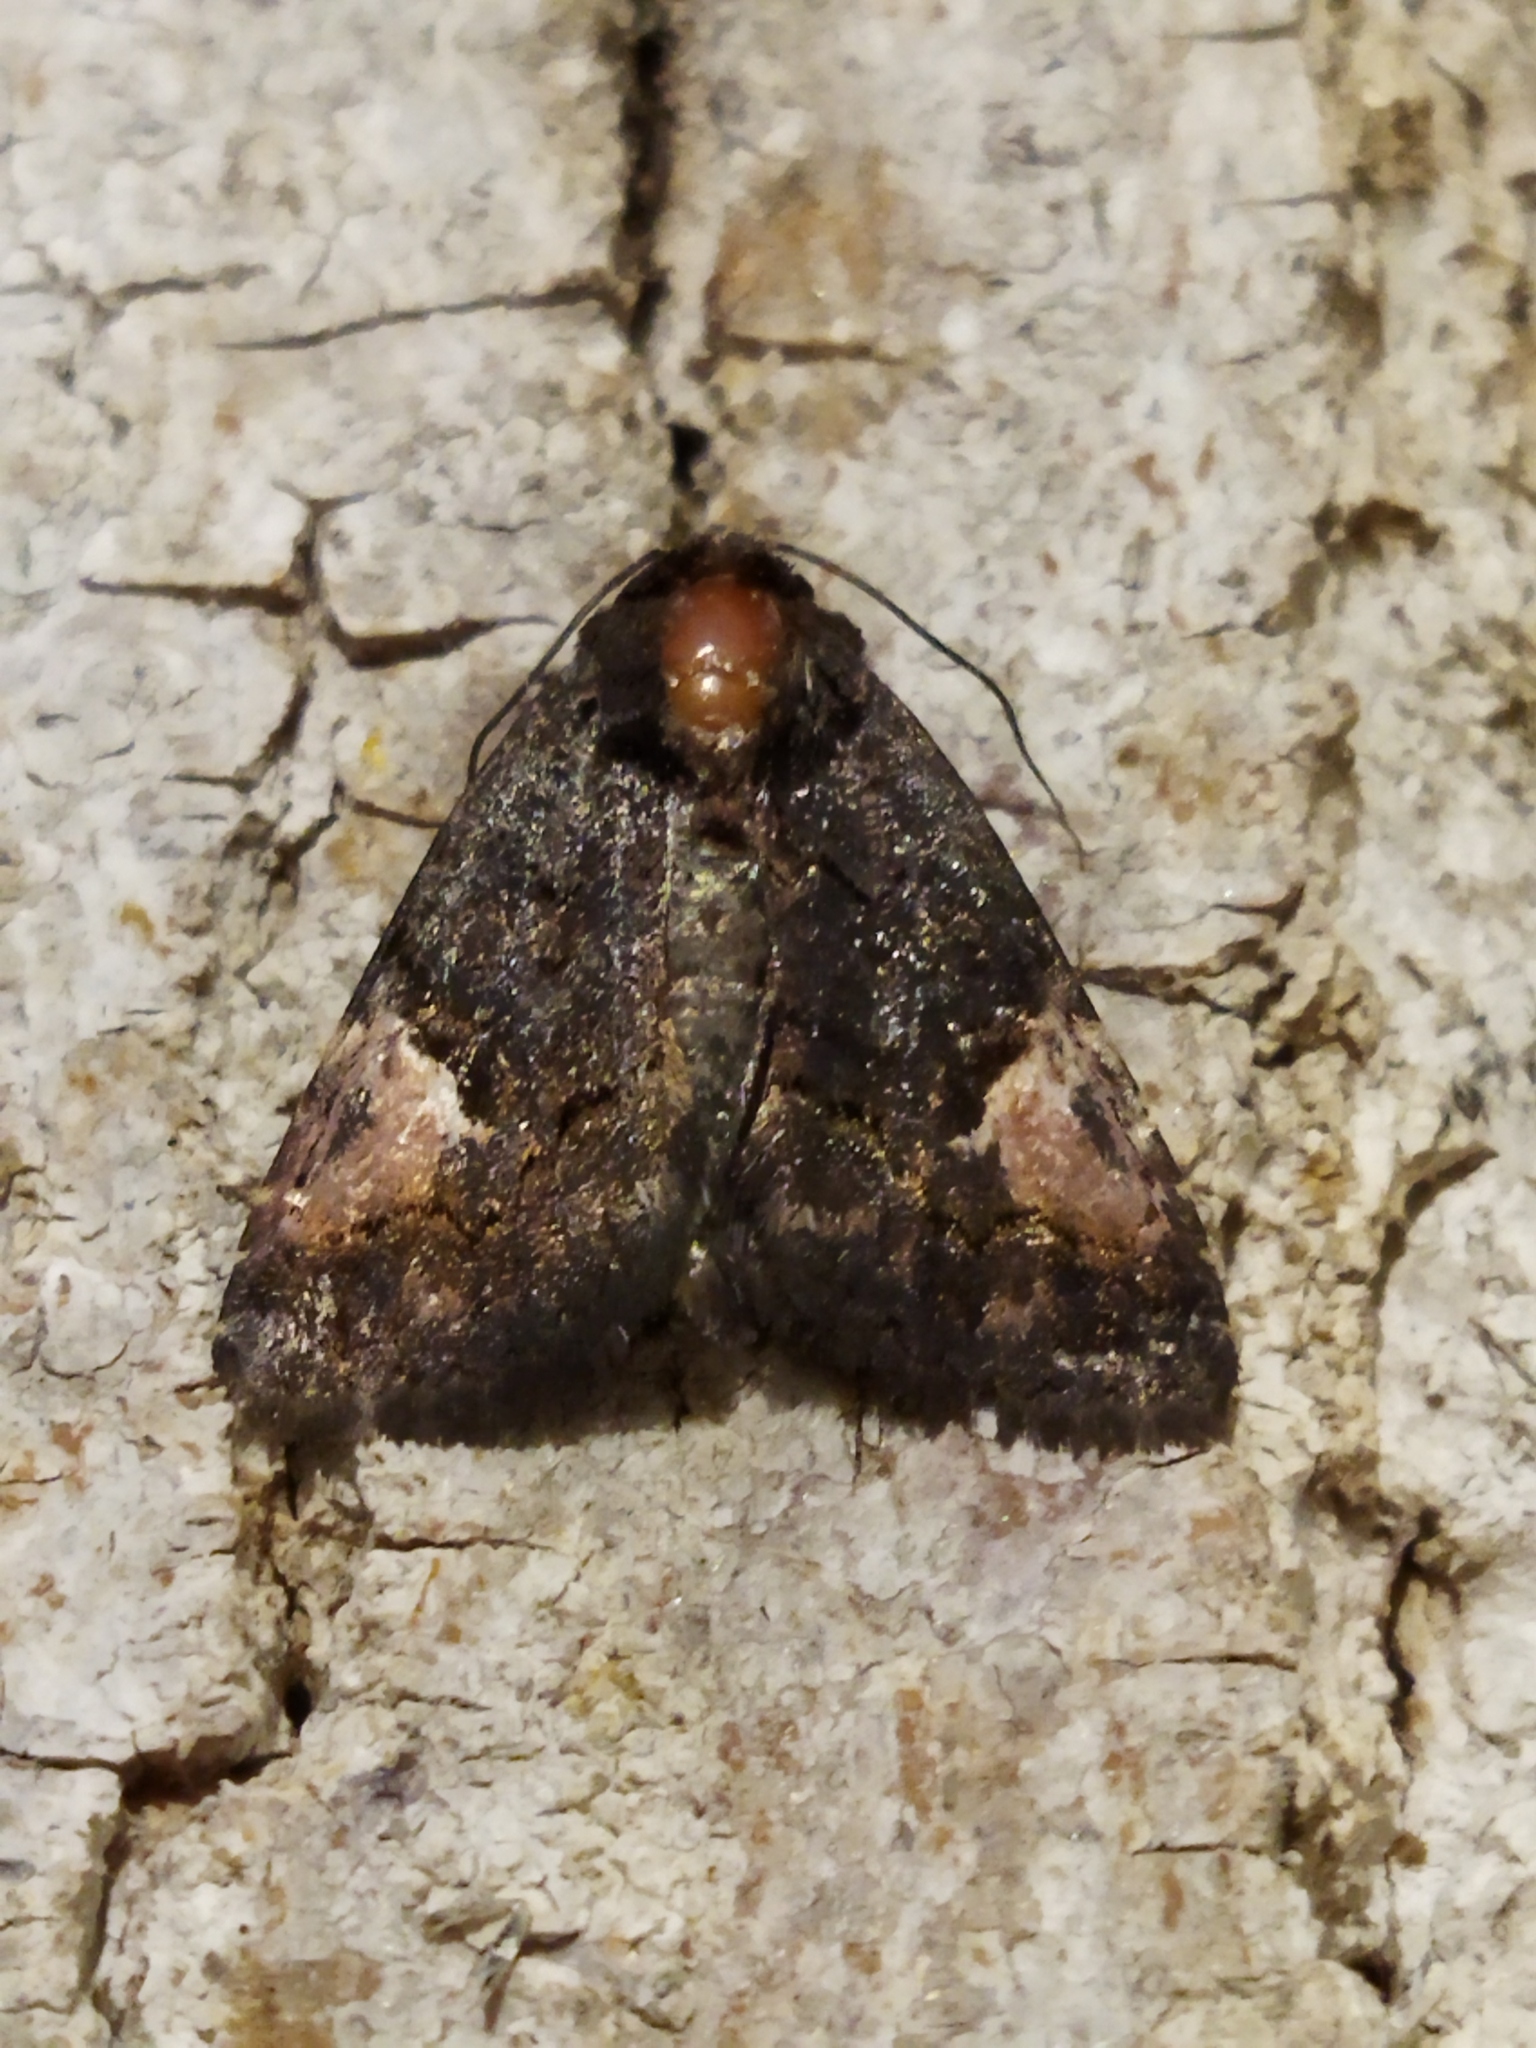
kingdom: Animalia
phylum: Arthropoda
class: Insecta
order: Lepidoptera
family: Noctuidae
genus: Aedia
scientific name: Aedia funesta
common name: The druid
